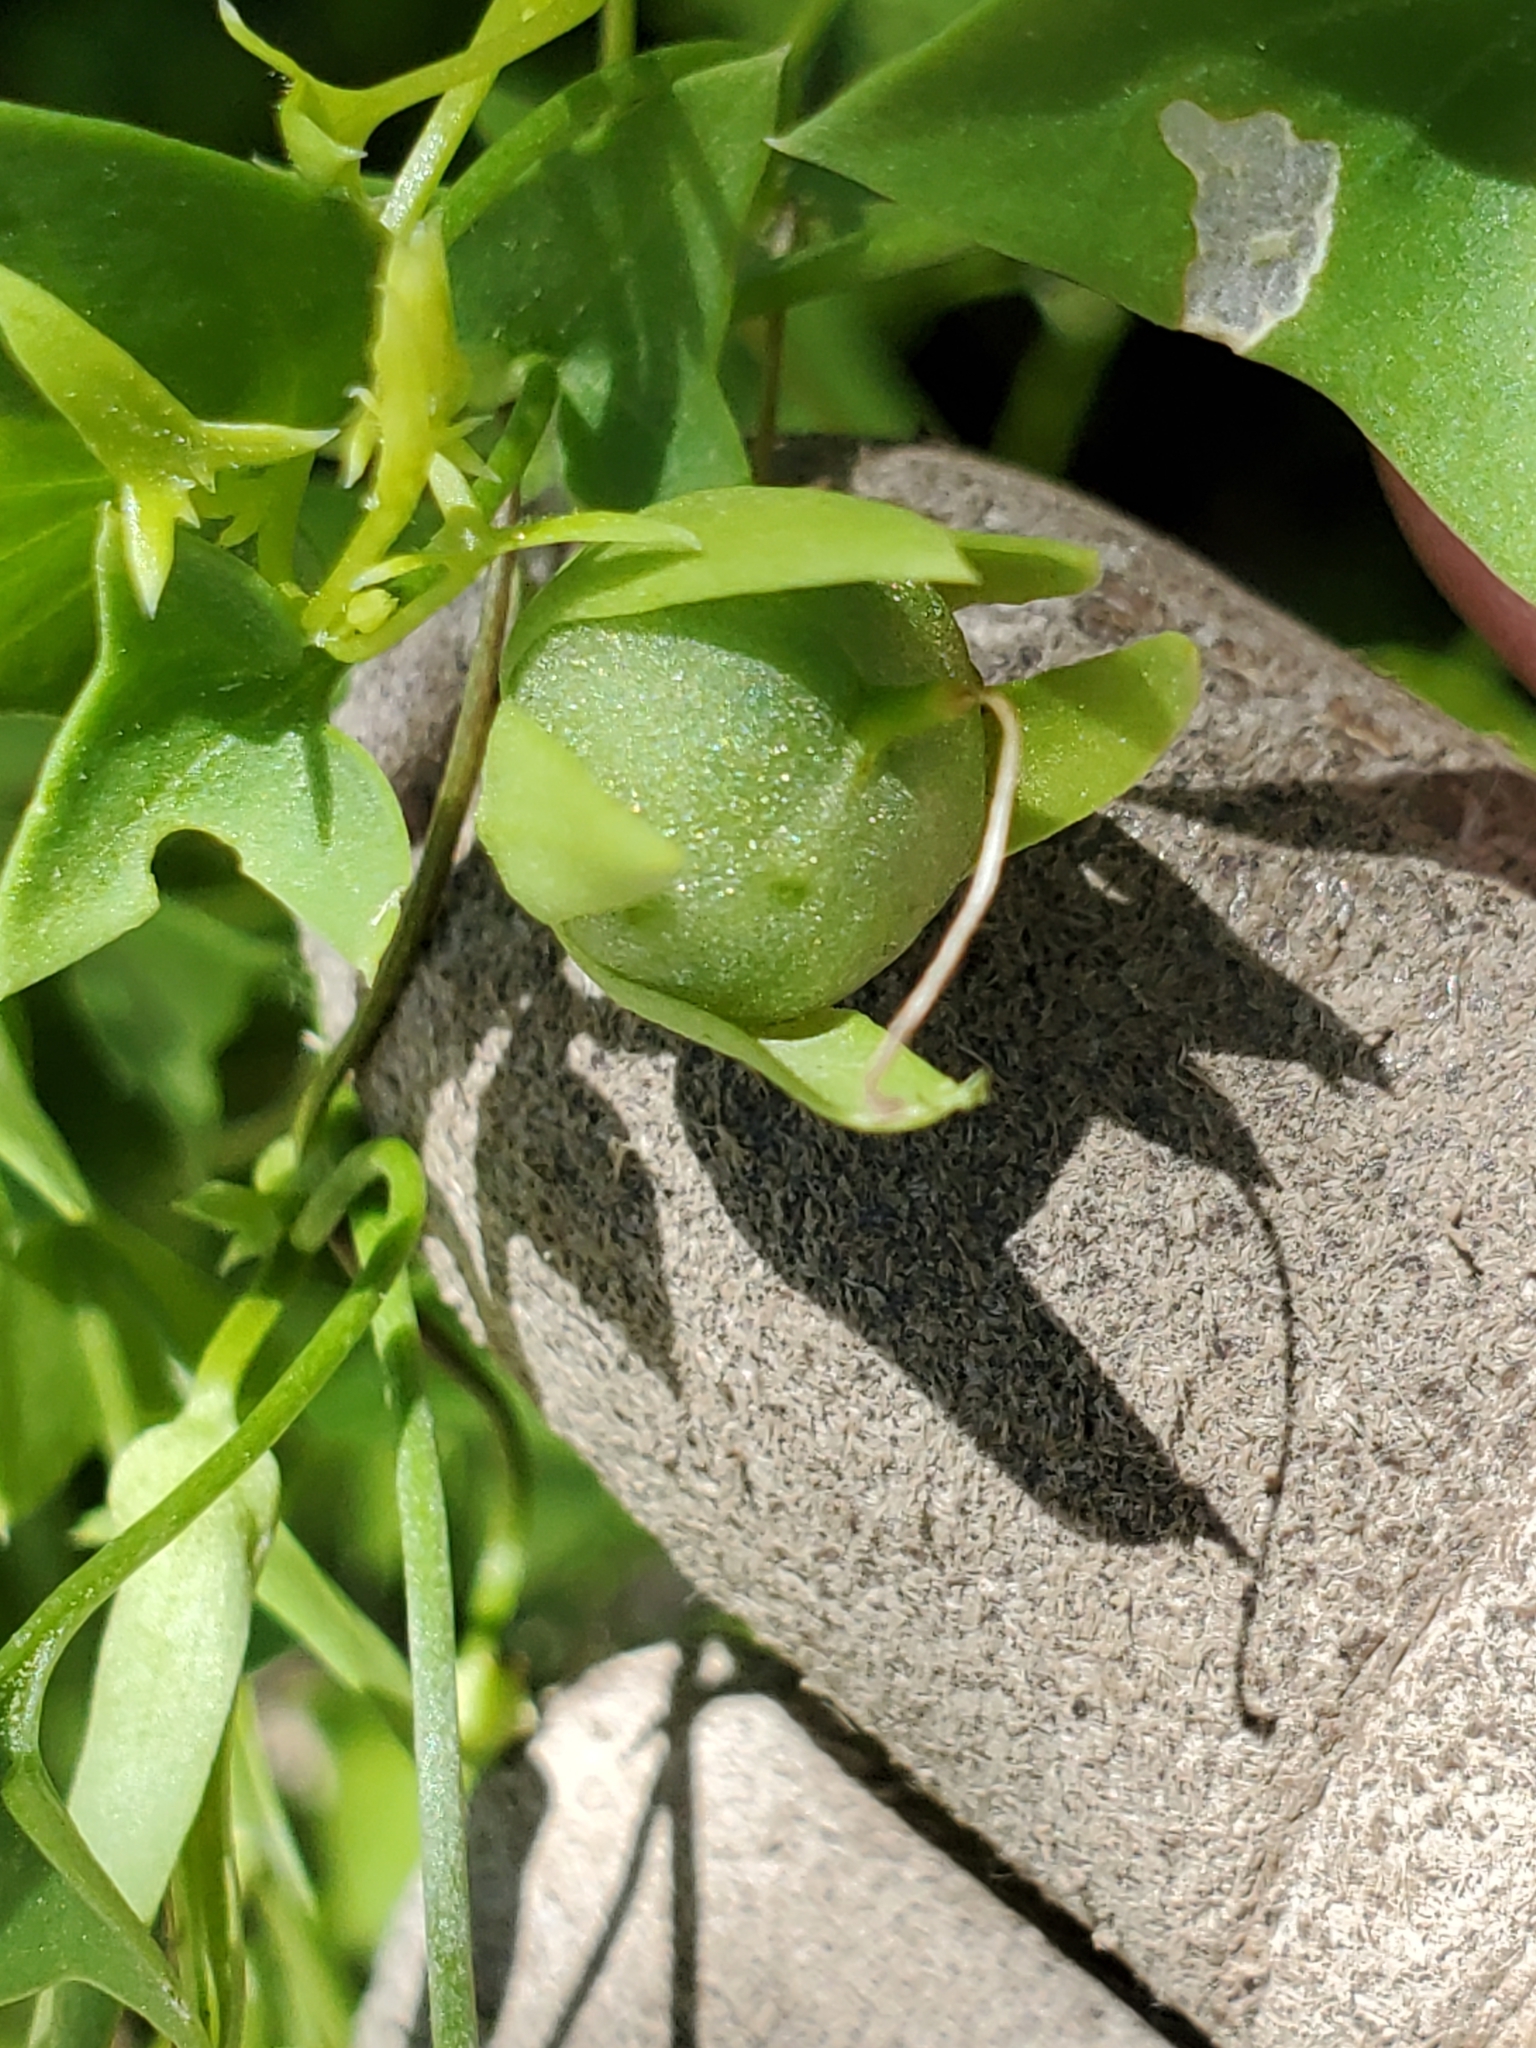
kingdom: Plantae
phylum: Tracheophyta
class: Magnoliopsida
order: Lamiales
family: Plantaginaceae
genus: Maurandella
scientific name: Maurandella antirrhiniflora
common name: Violet twining-snapdragon
